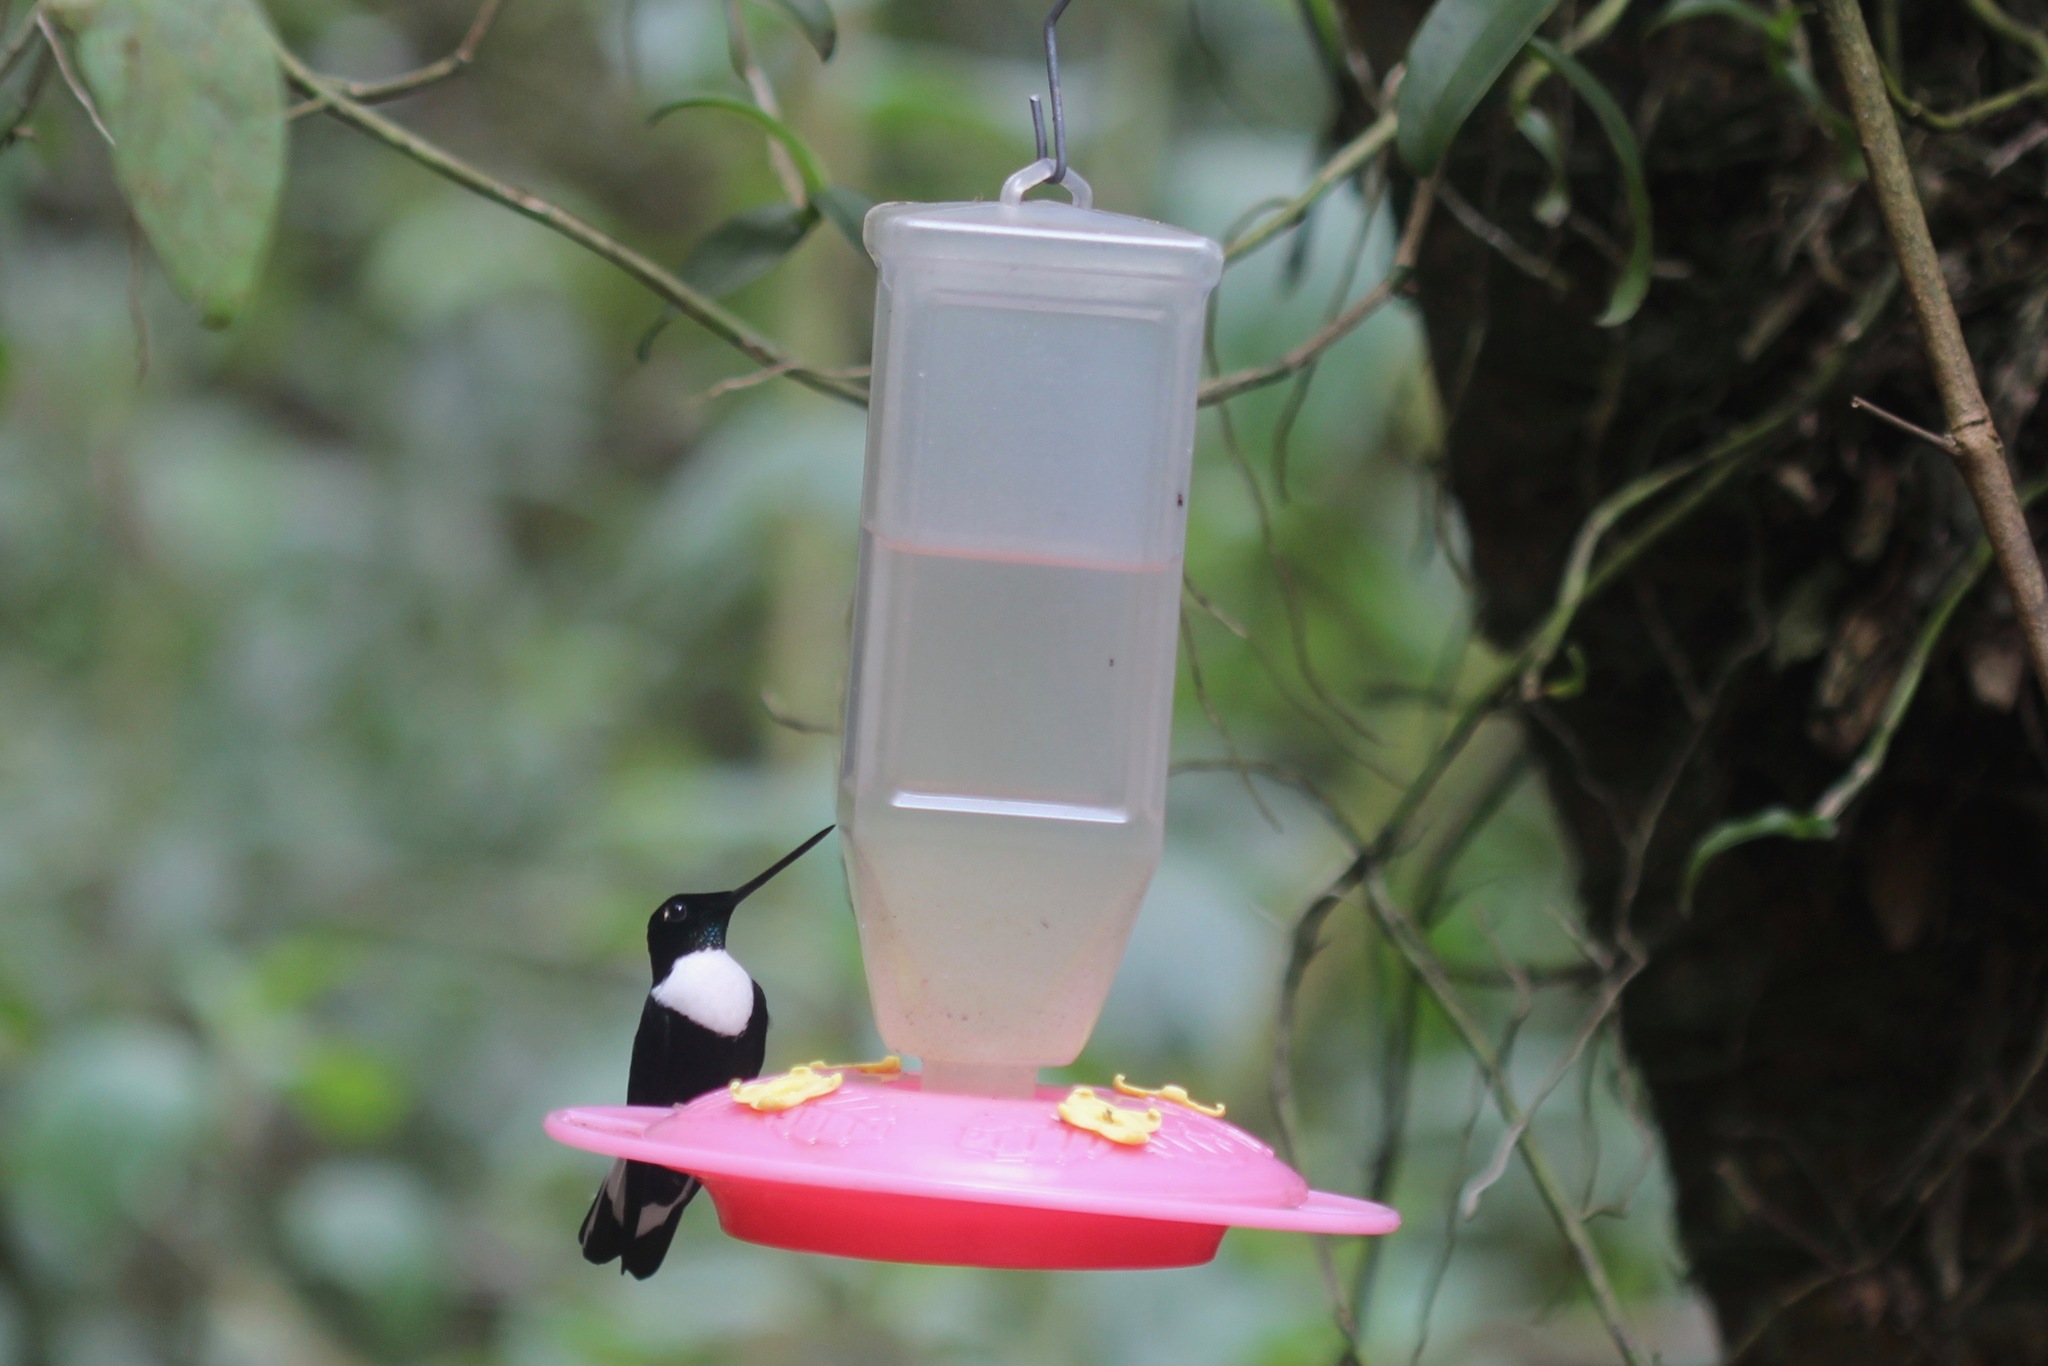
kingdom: Animalia
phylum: Chordata
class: Aves
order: Apodiformes
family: Trochilidae
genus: Coeligena
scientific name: Coeligena torquata
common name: Collared inca
